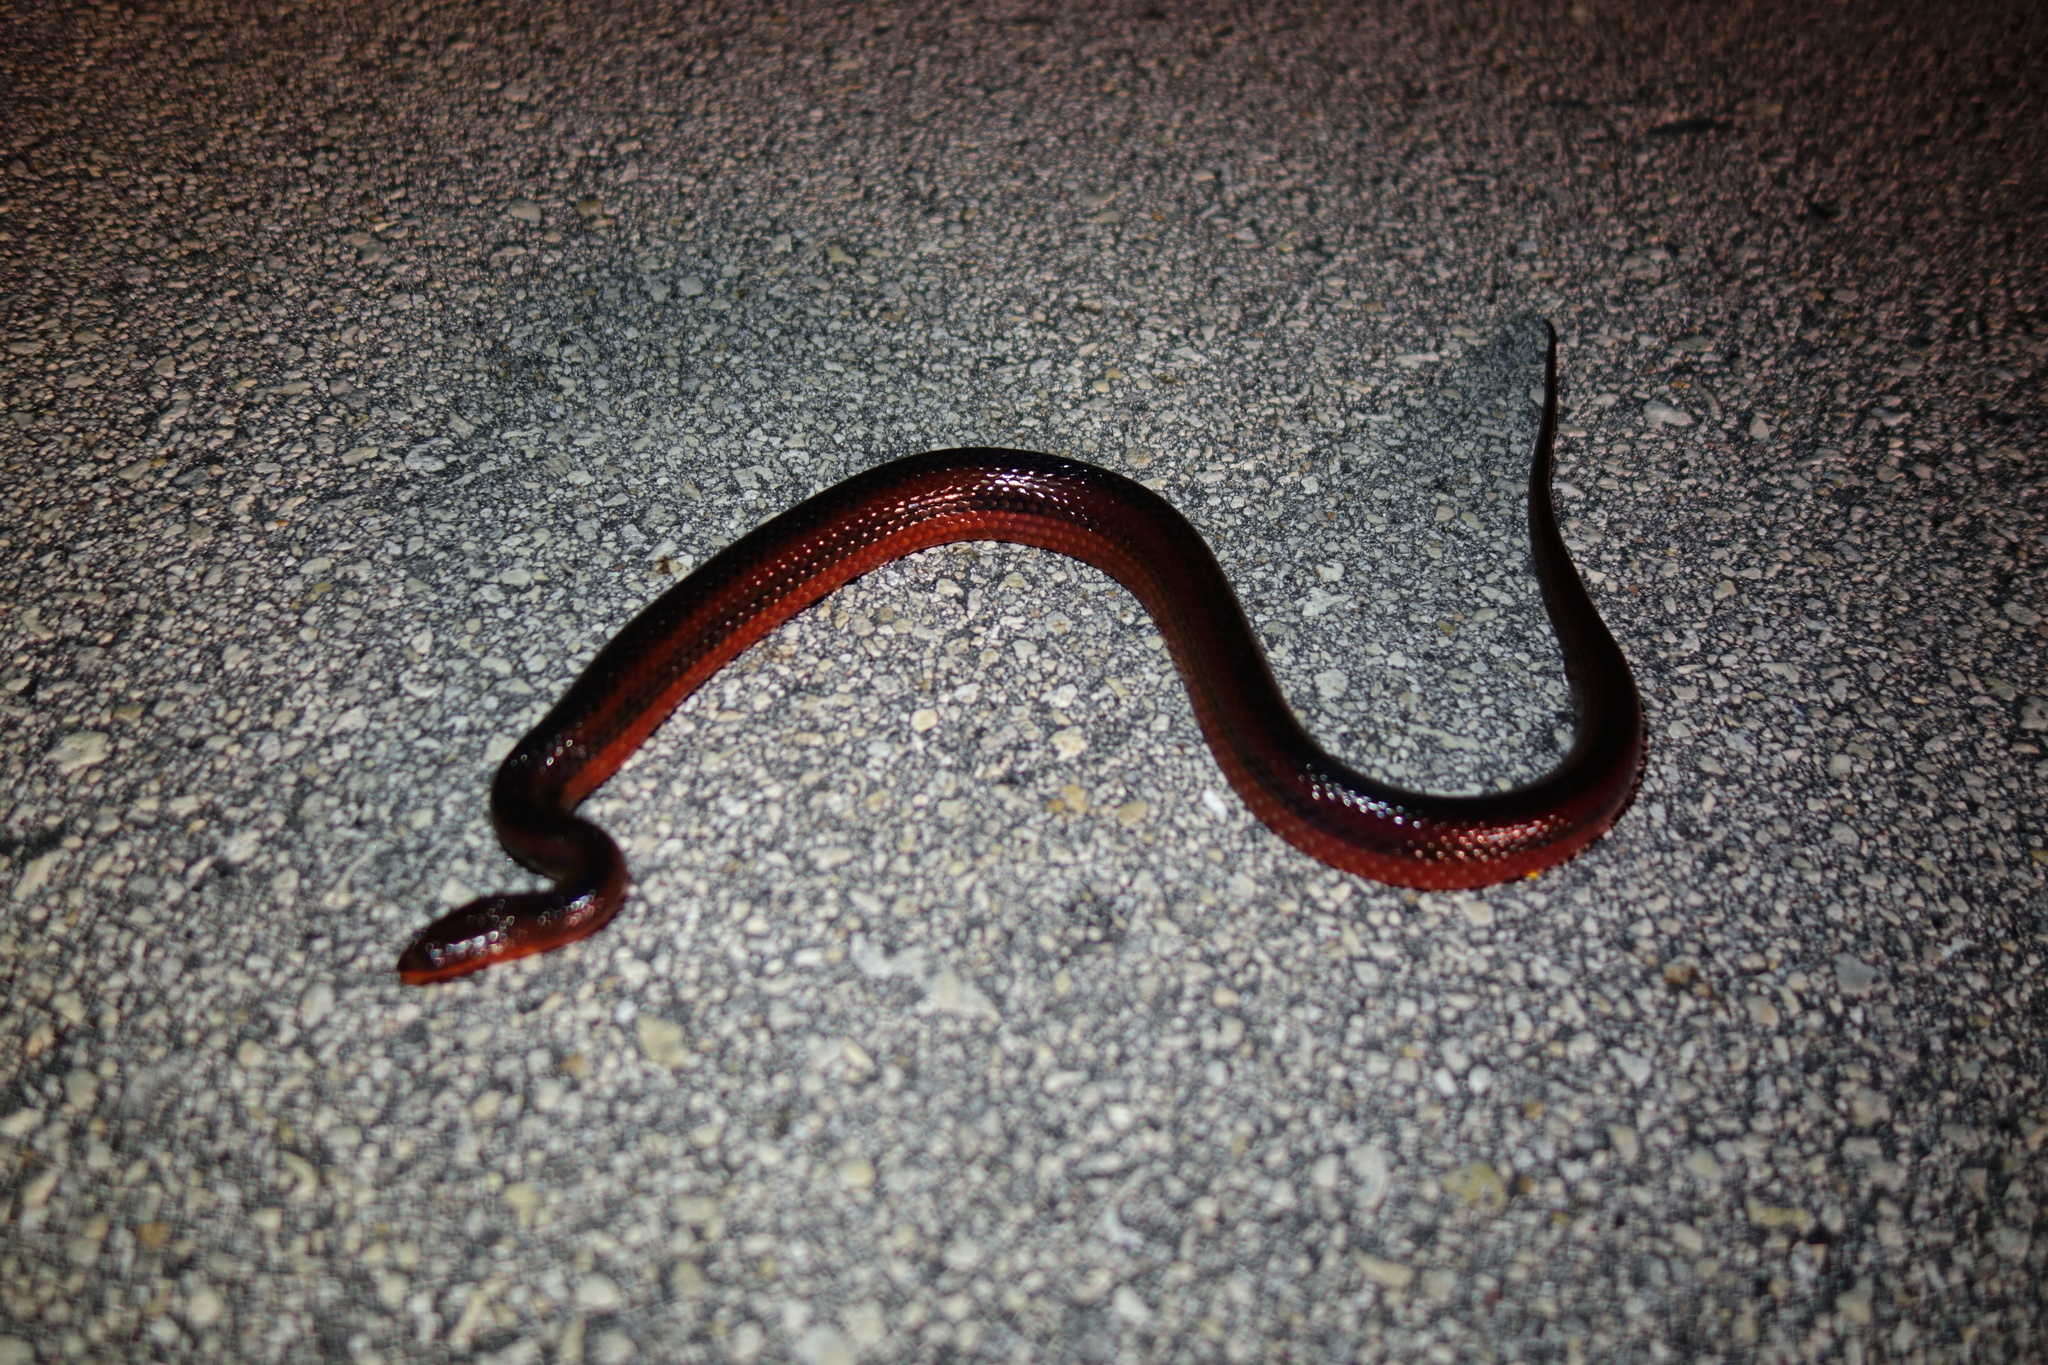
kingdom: Animalia
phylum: Chordata
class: Squamata
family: Colubridae
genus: Liodytes
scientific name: Liodytes alleni
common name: Striped crayfish snake
